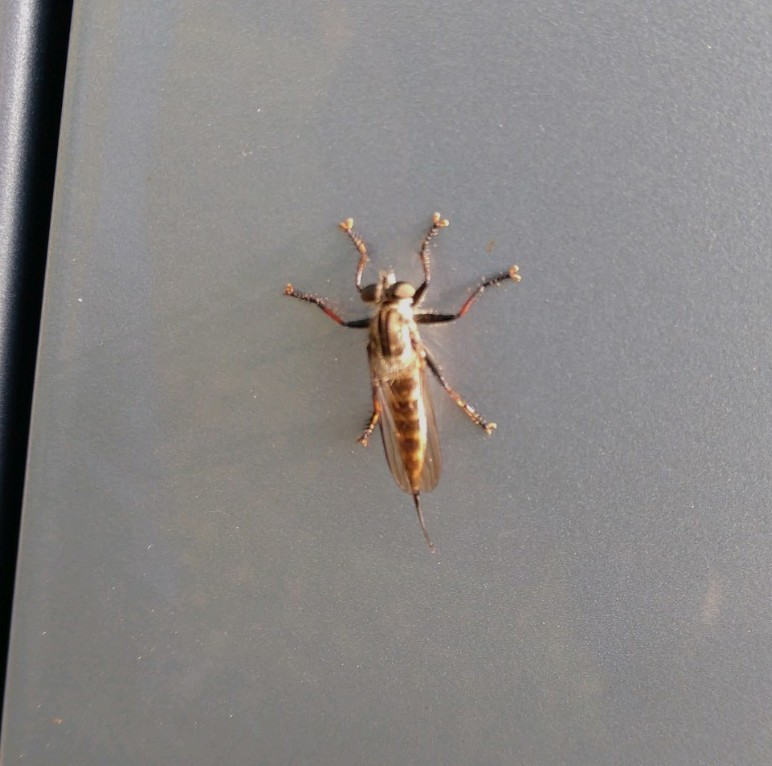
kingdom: Animalia
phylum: Arthropoda
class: Insecta
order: Diptera
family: Asilidae
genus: Efferia
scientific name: Efferia aestuans
